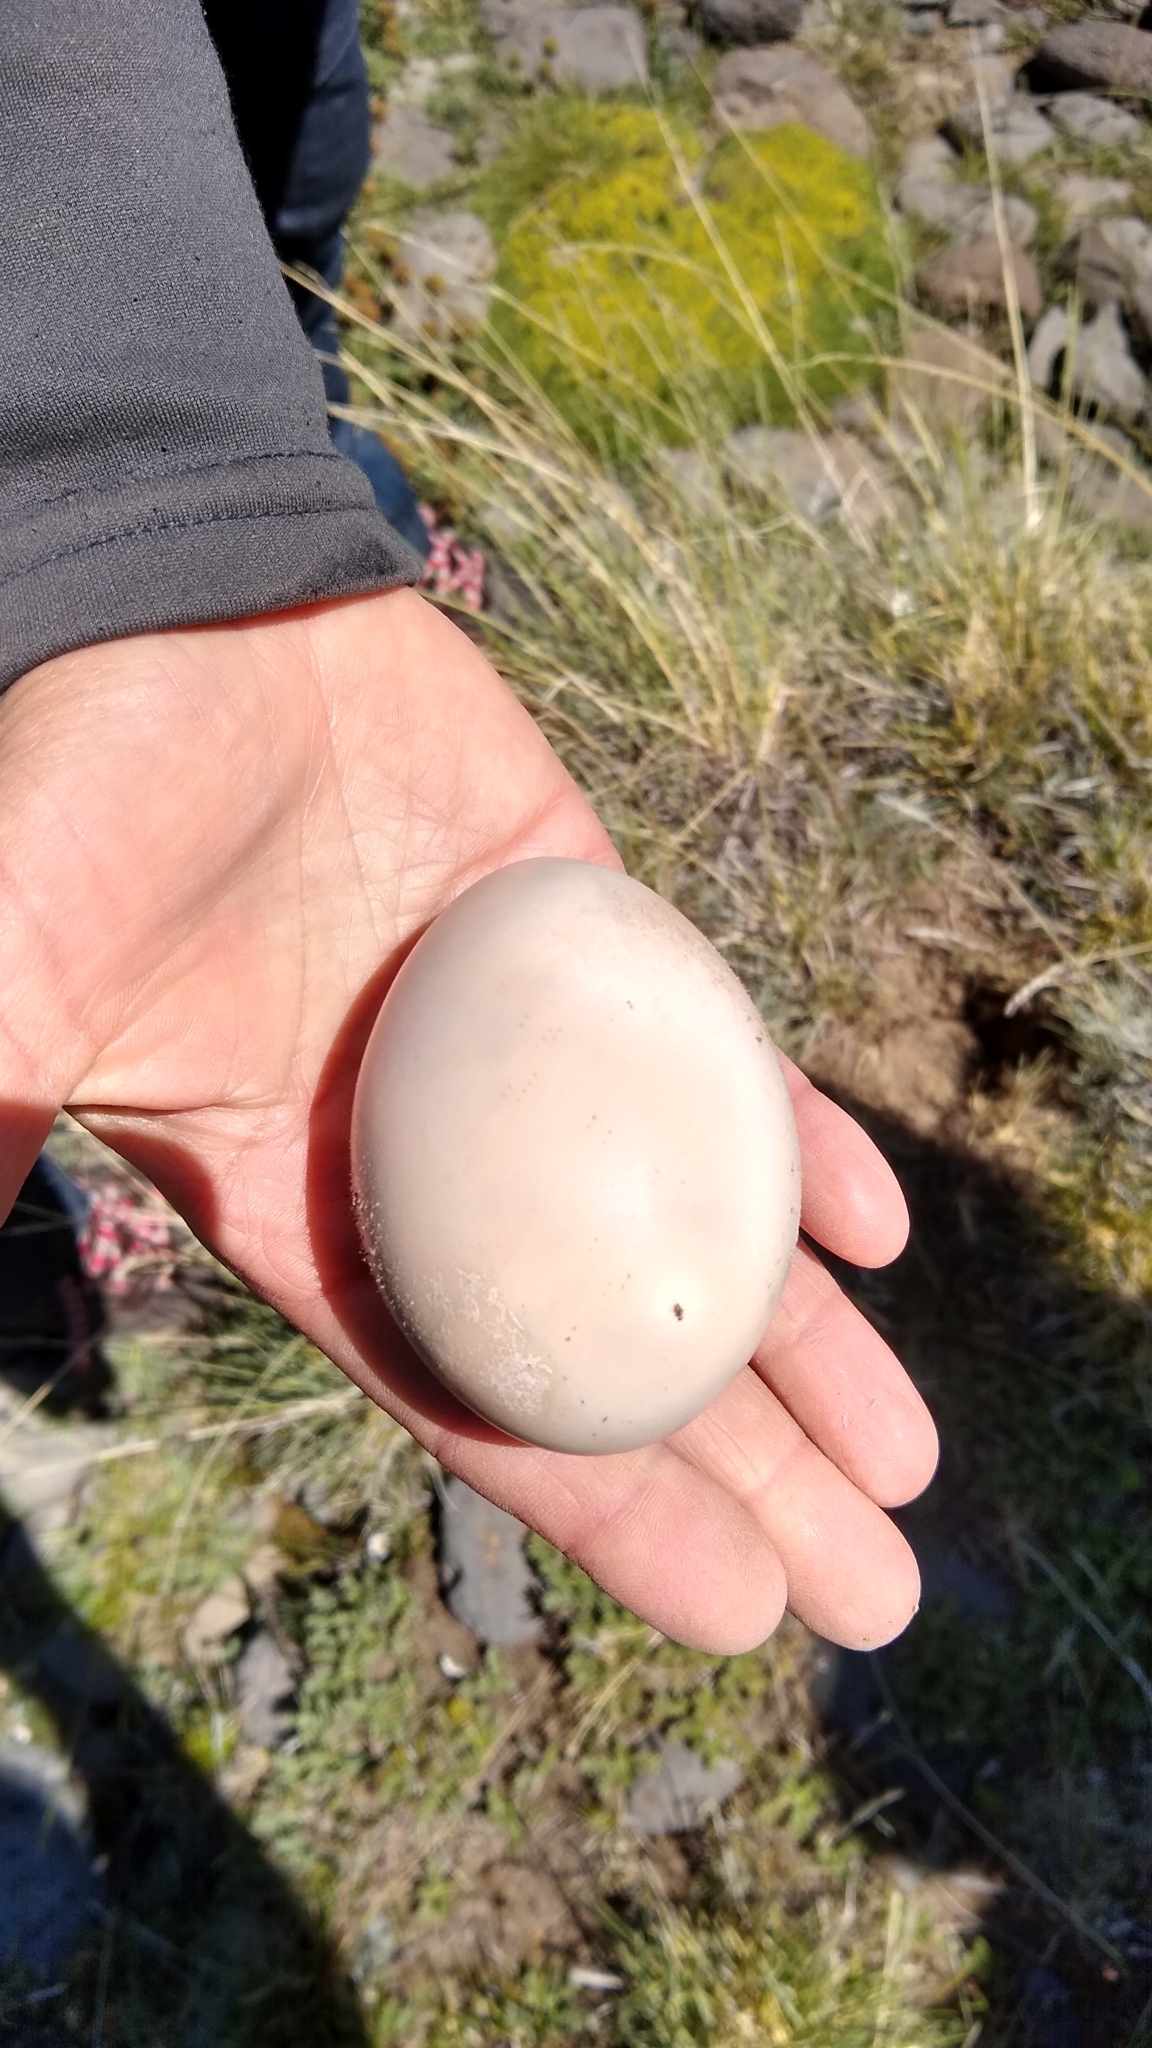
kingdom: Animalia
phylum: Chordata
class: Aves
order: Anseriformes
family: Anatidae
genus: Chloephaga
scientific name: Chloephaga picta
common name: Upland goose
